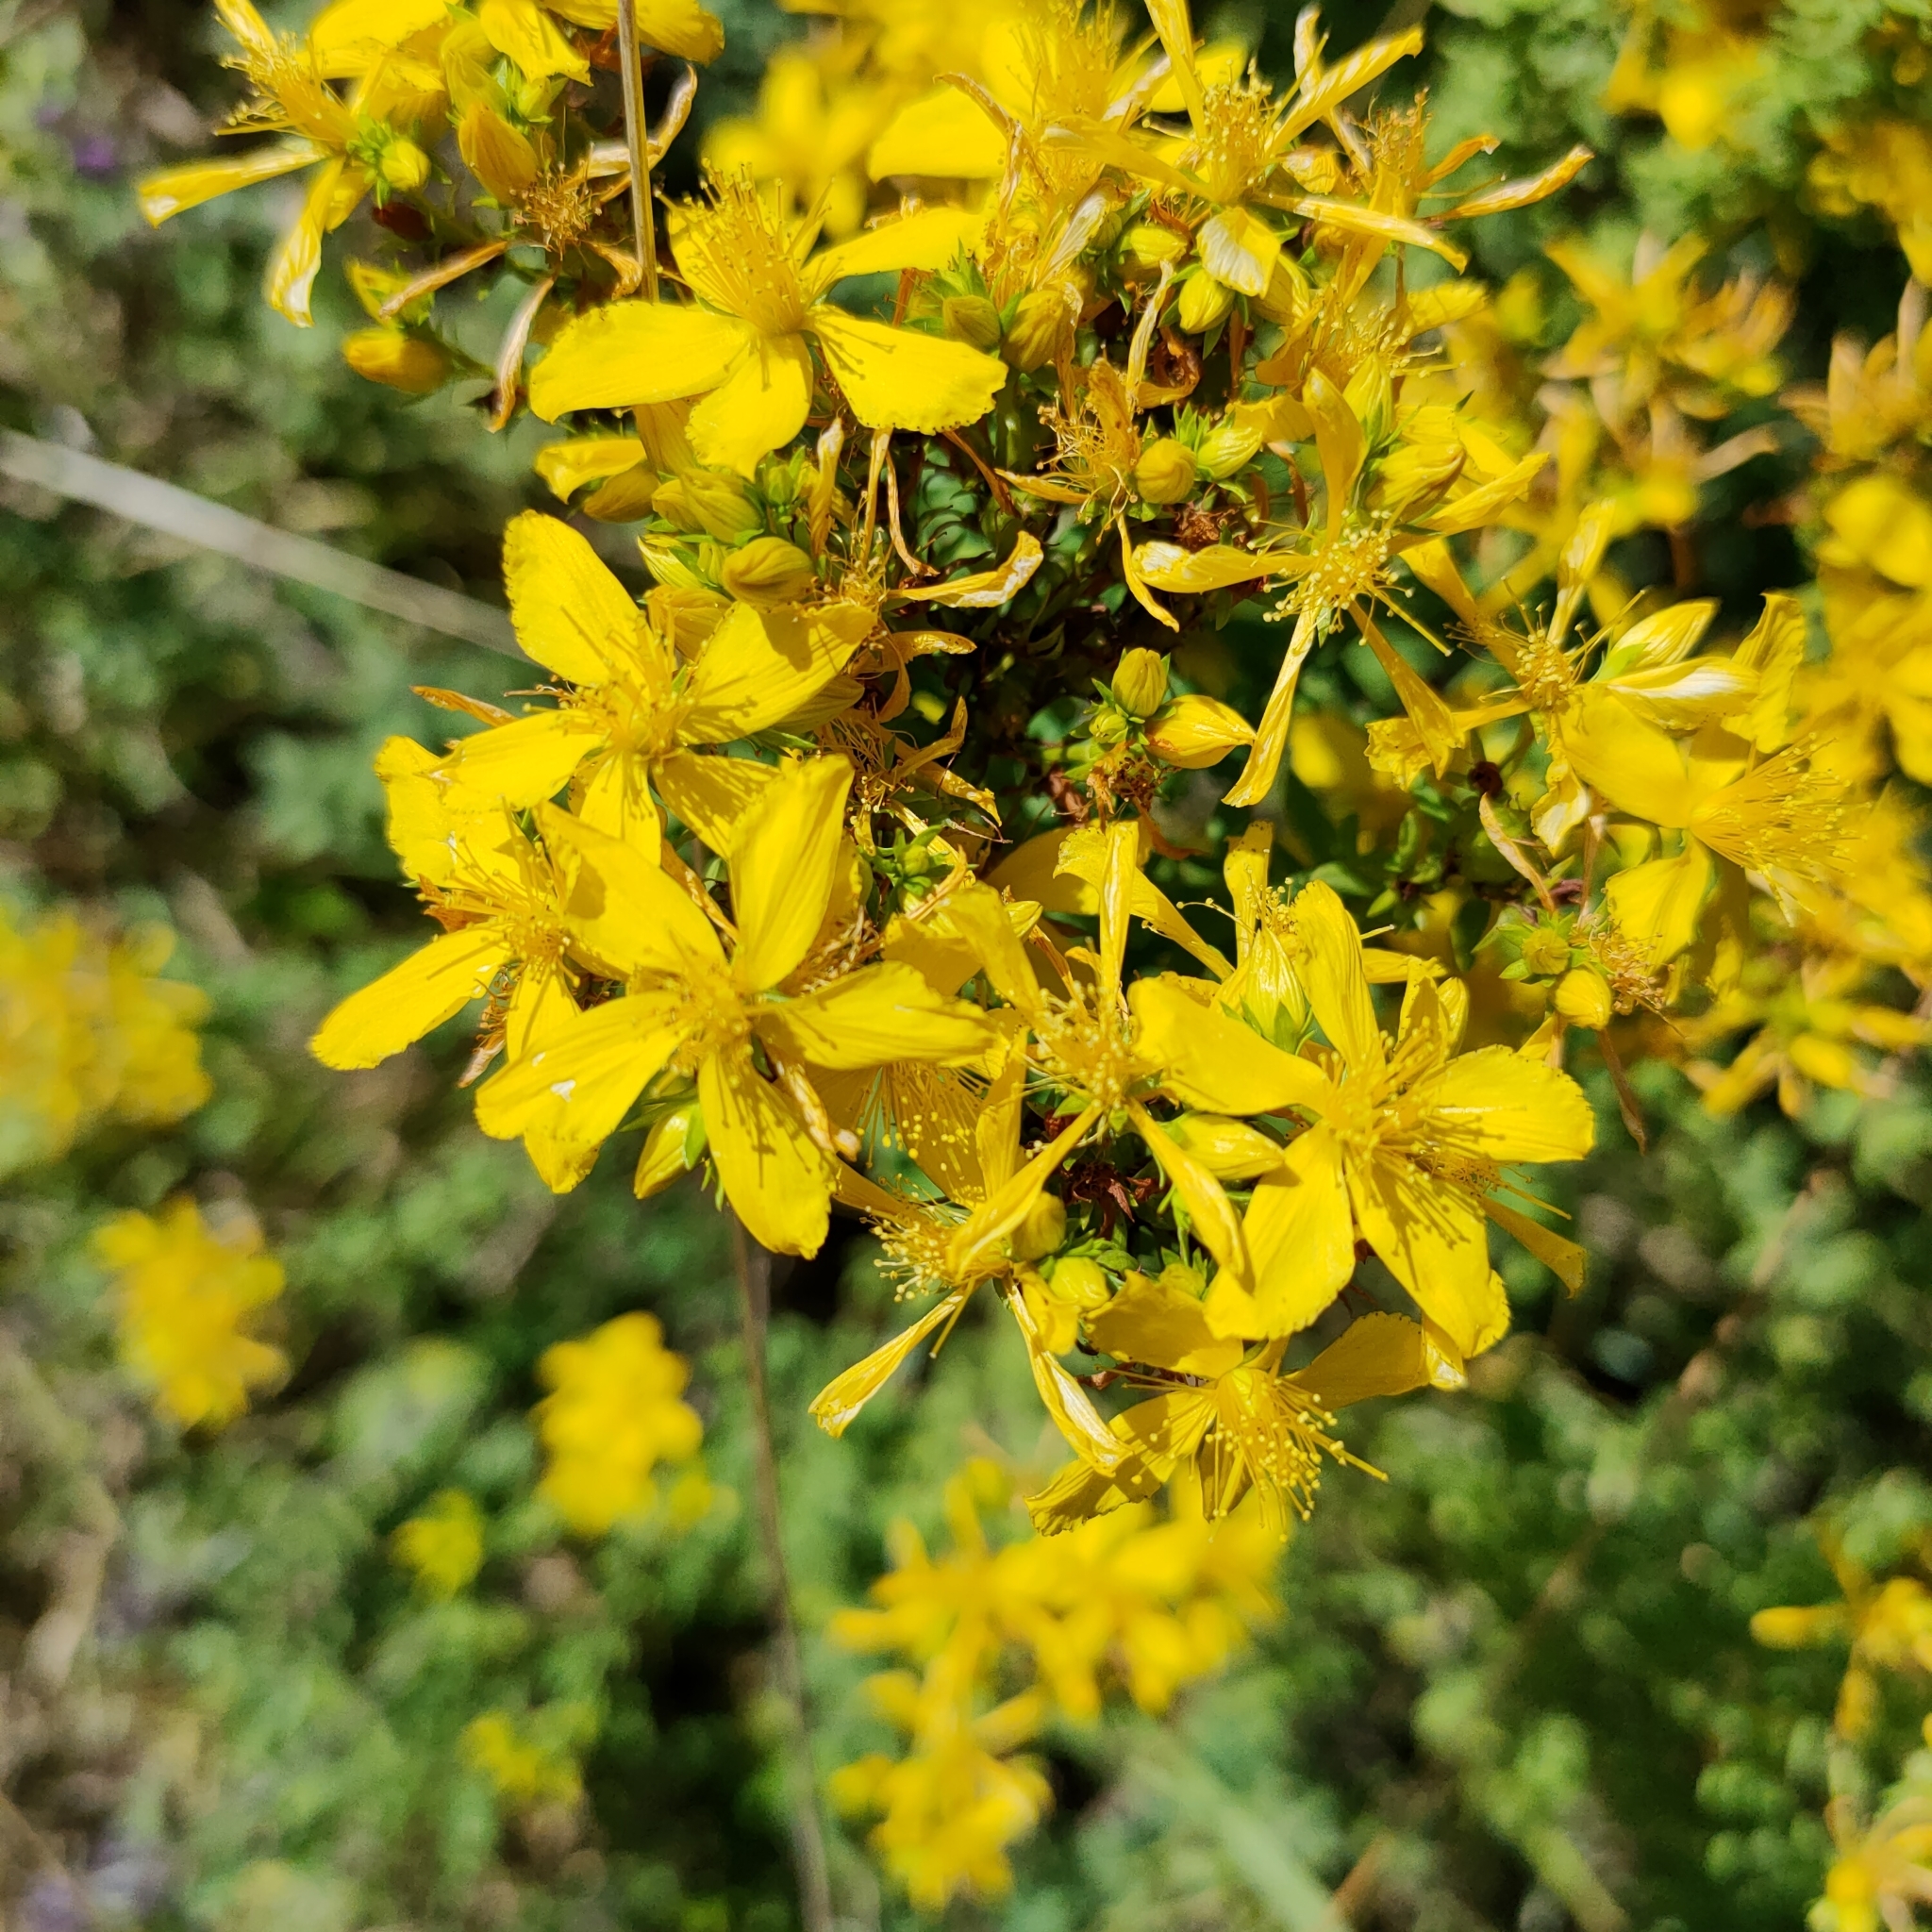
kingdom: Plantae
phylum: Tracheophyta
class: Magnoliopsida
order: Malpighiales
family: Hypericaceae
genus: Hypericum
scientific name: Hypericum perforatum
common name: Common st. johnswort
